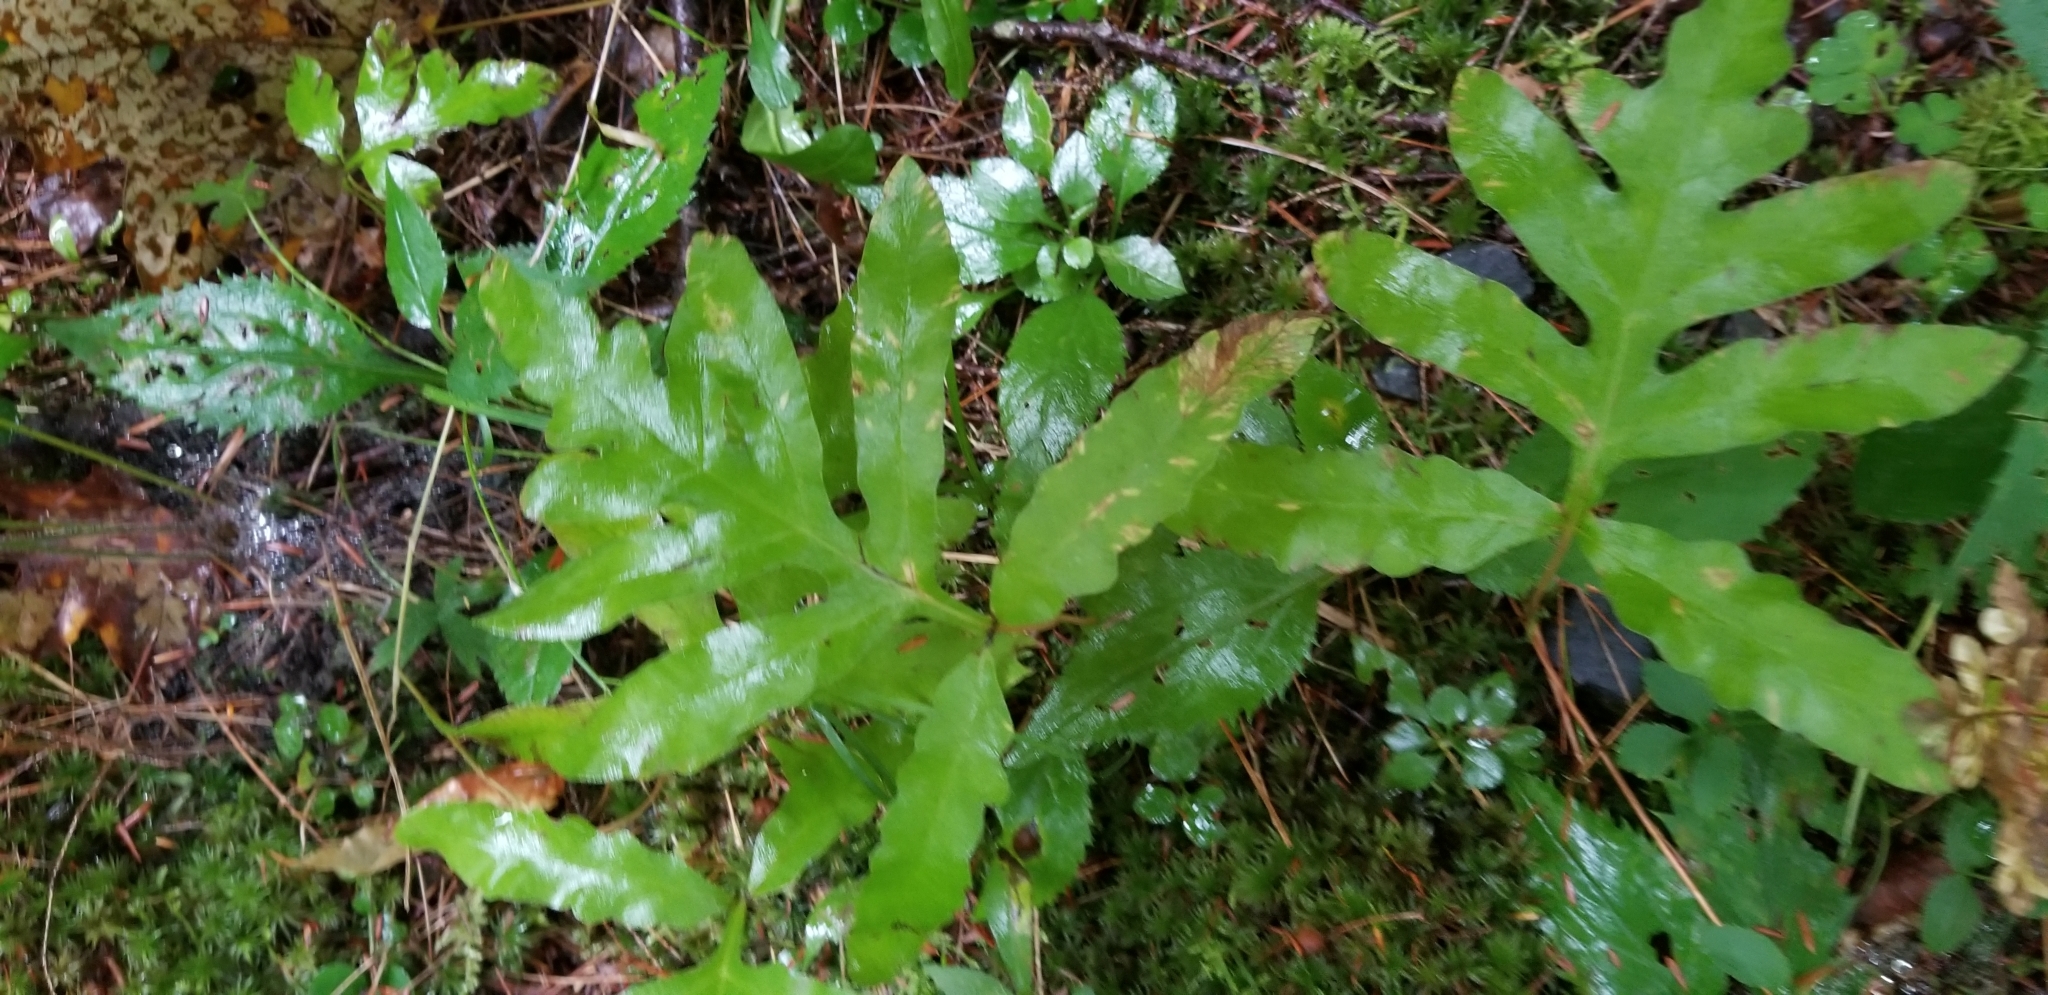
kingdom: Plantae
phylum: Tracheophyta
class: Polypodiopsida
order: Polypodiales
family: Onocleaceae
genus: Onoclea
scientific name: Onoclea sensibilis
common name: Sensitive fern
